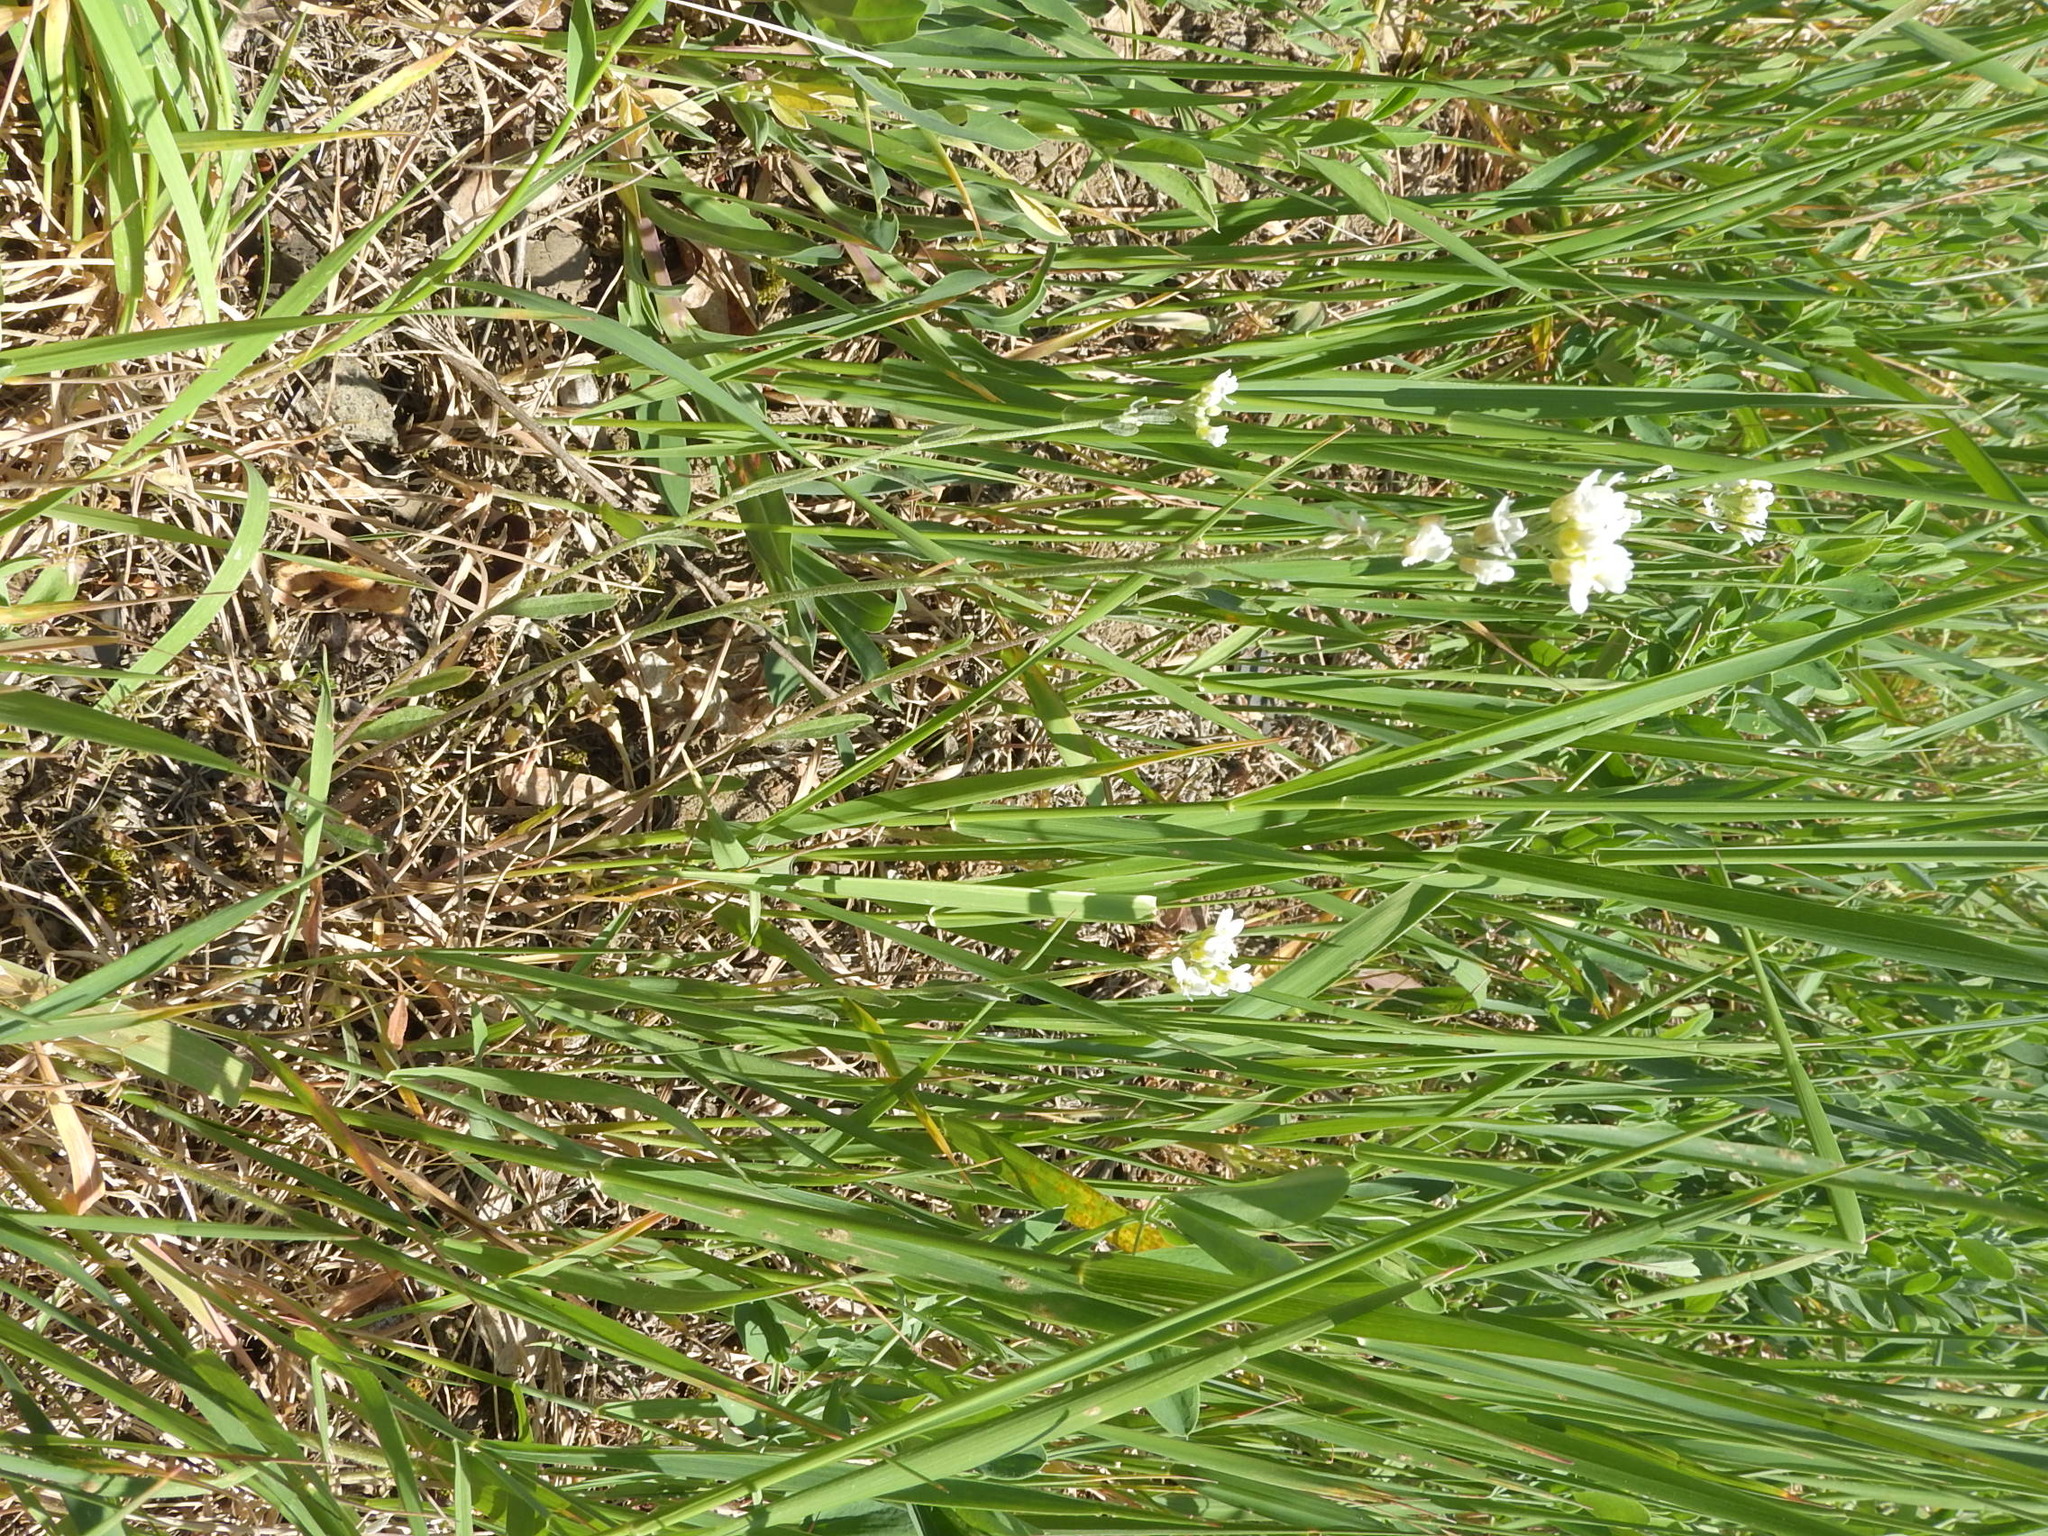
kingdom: Plantae
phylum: Tracheophyta
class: Magnoliopsida
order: Brassicales
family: Brassicaceae
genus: Berteroa
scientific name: Berteroa incana
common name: Hoary alison
